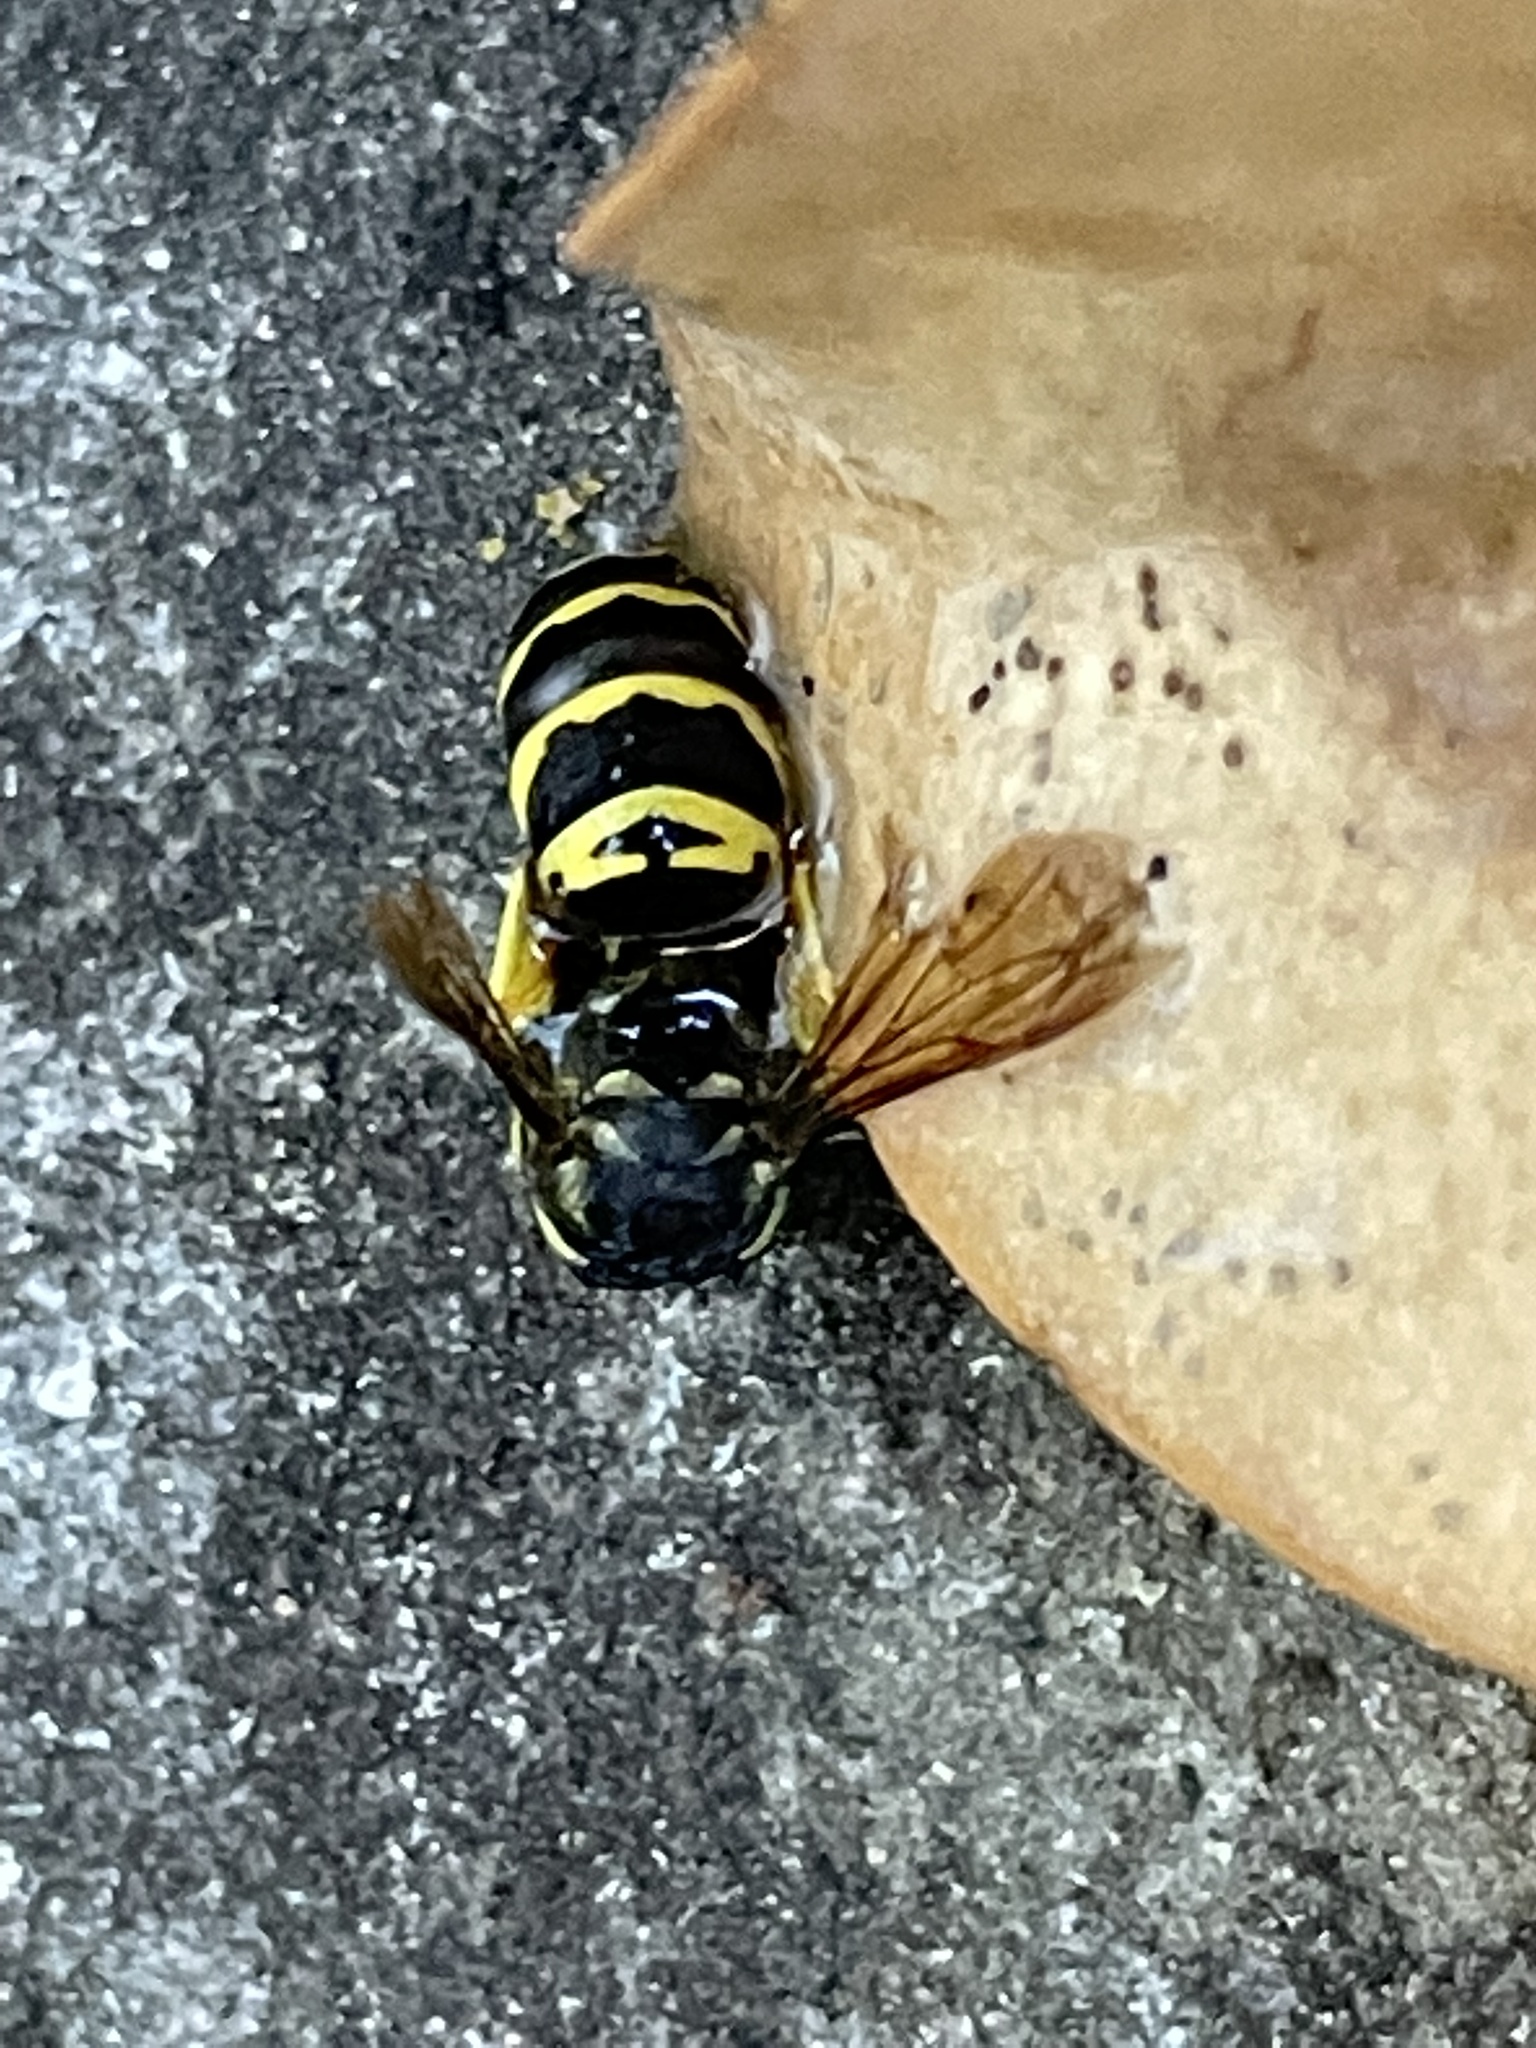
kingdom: Animalia
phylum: Arthropoda
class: Insecta
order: Hymenoptera
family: Vespidae
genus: Vespula
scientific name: Vespula maculifrons
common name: Eastern yellowjacket
